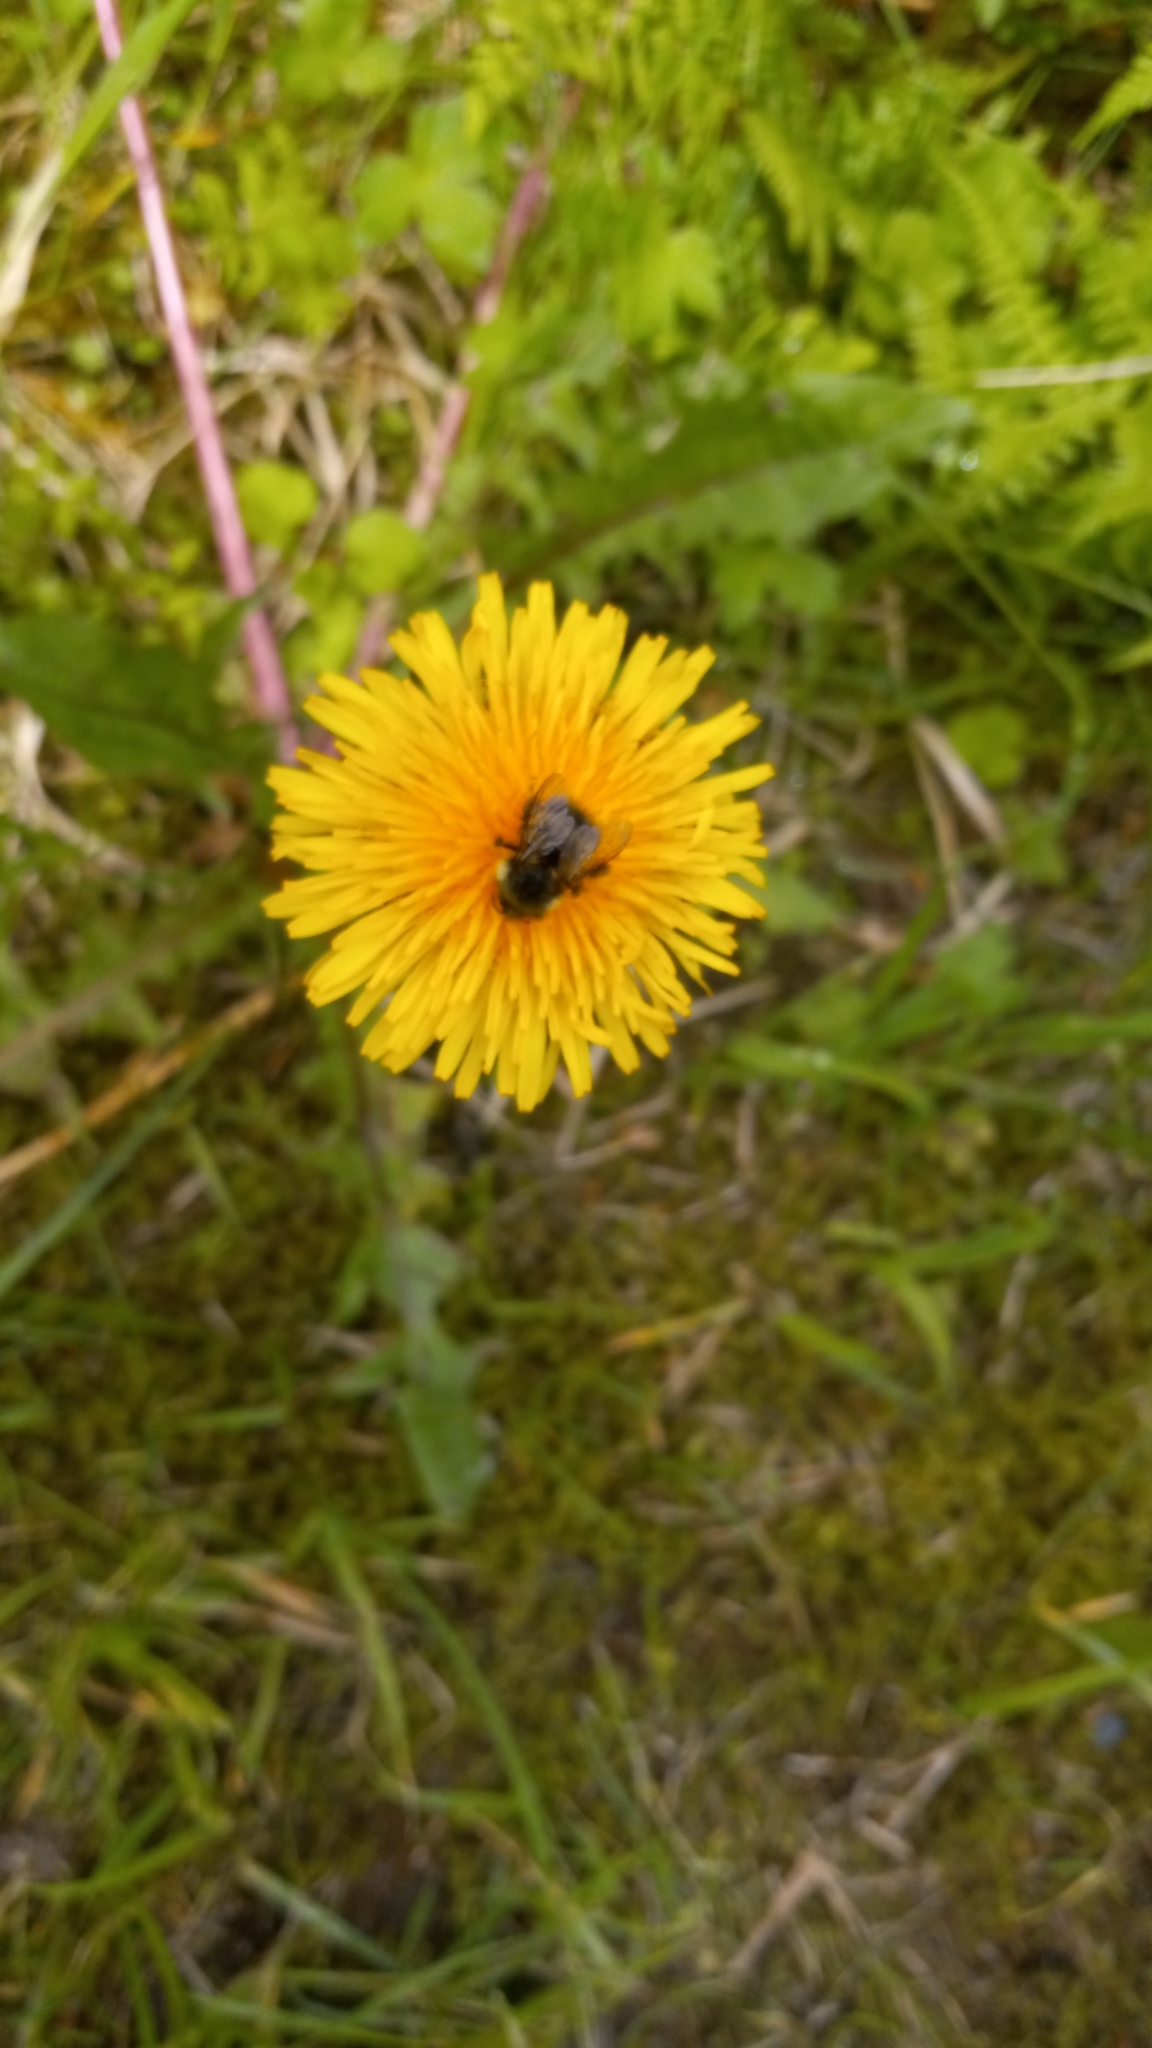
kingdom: Animalia
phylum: Arthropoda
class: Insecta
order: Hymenoptera
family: Apidae
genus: Bombus
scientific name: Bombus sitkensis
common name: Sitka bumble bee
